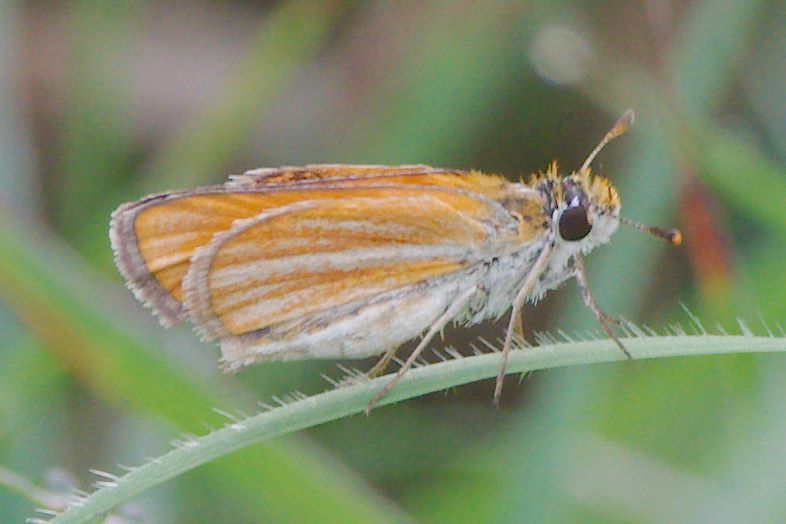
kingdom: Animalia
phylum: Arthropoda
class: Insecta
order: Lepidoptera
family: Hesperiidae
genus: Copaeodes
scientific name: Copaeodes minima
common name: Southern skipperling
